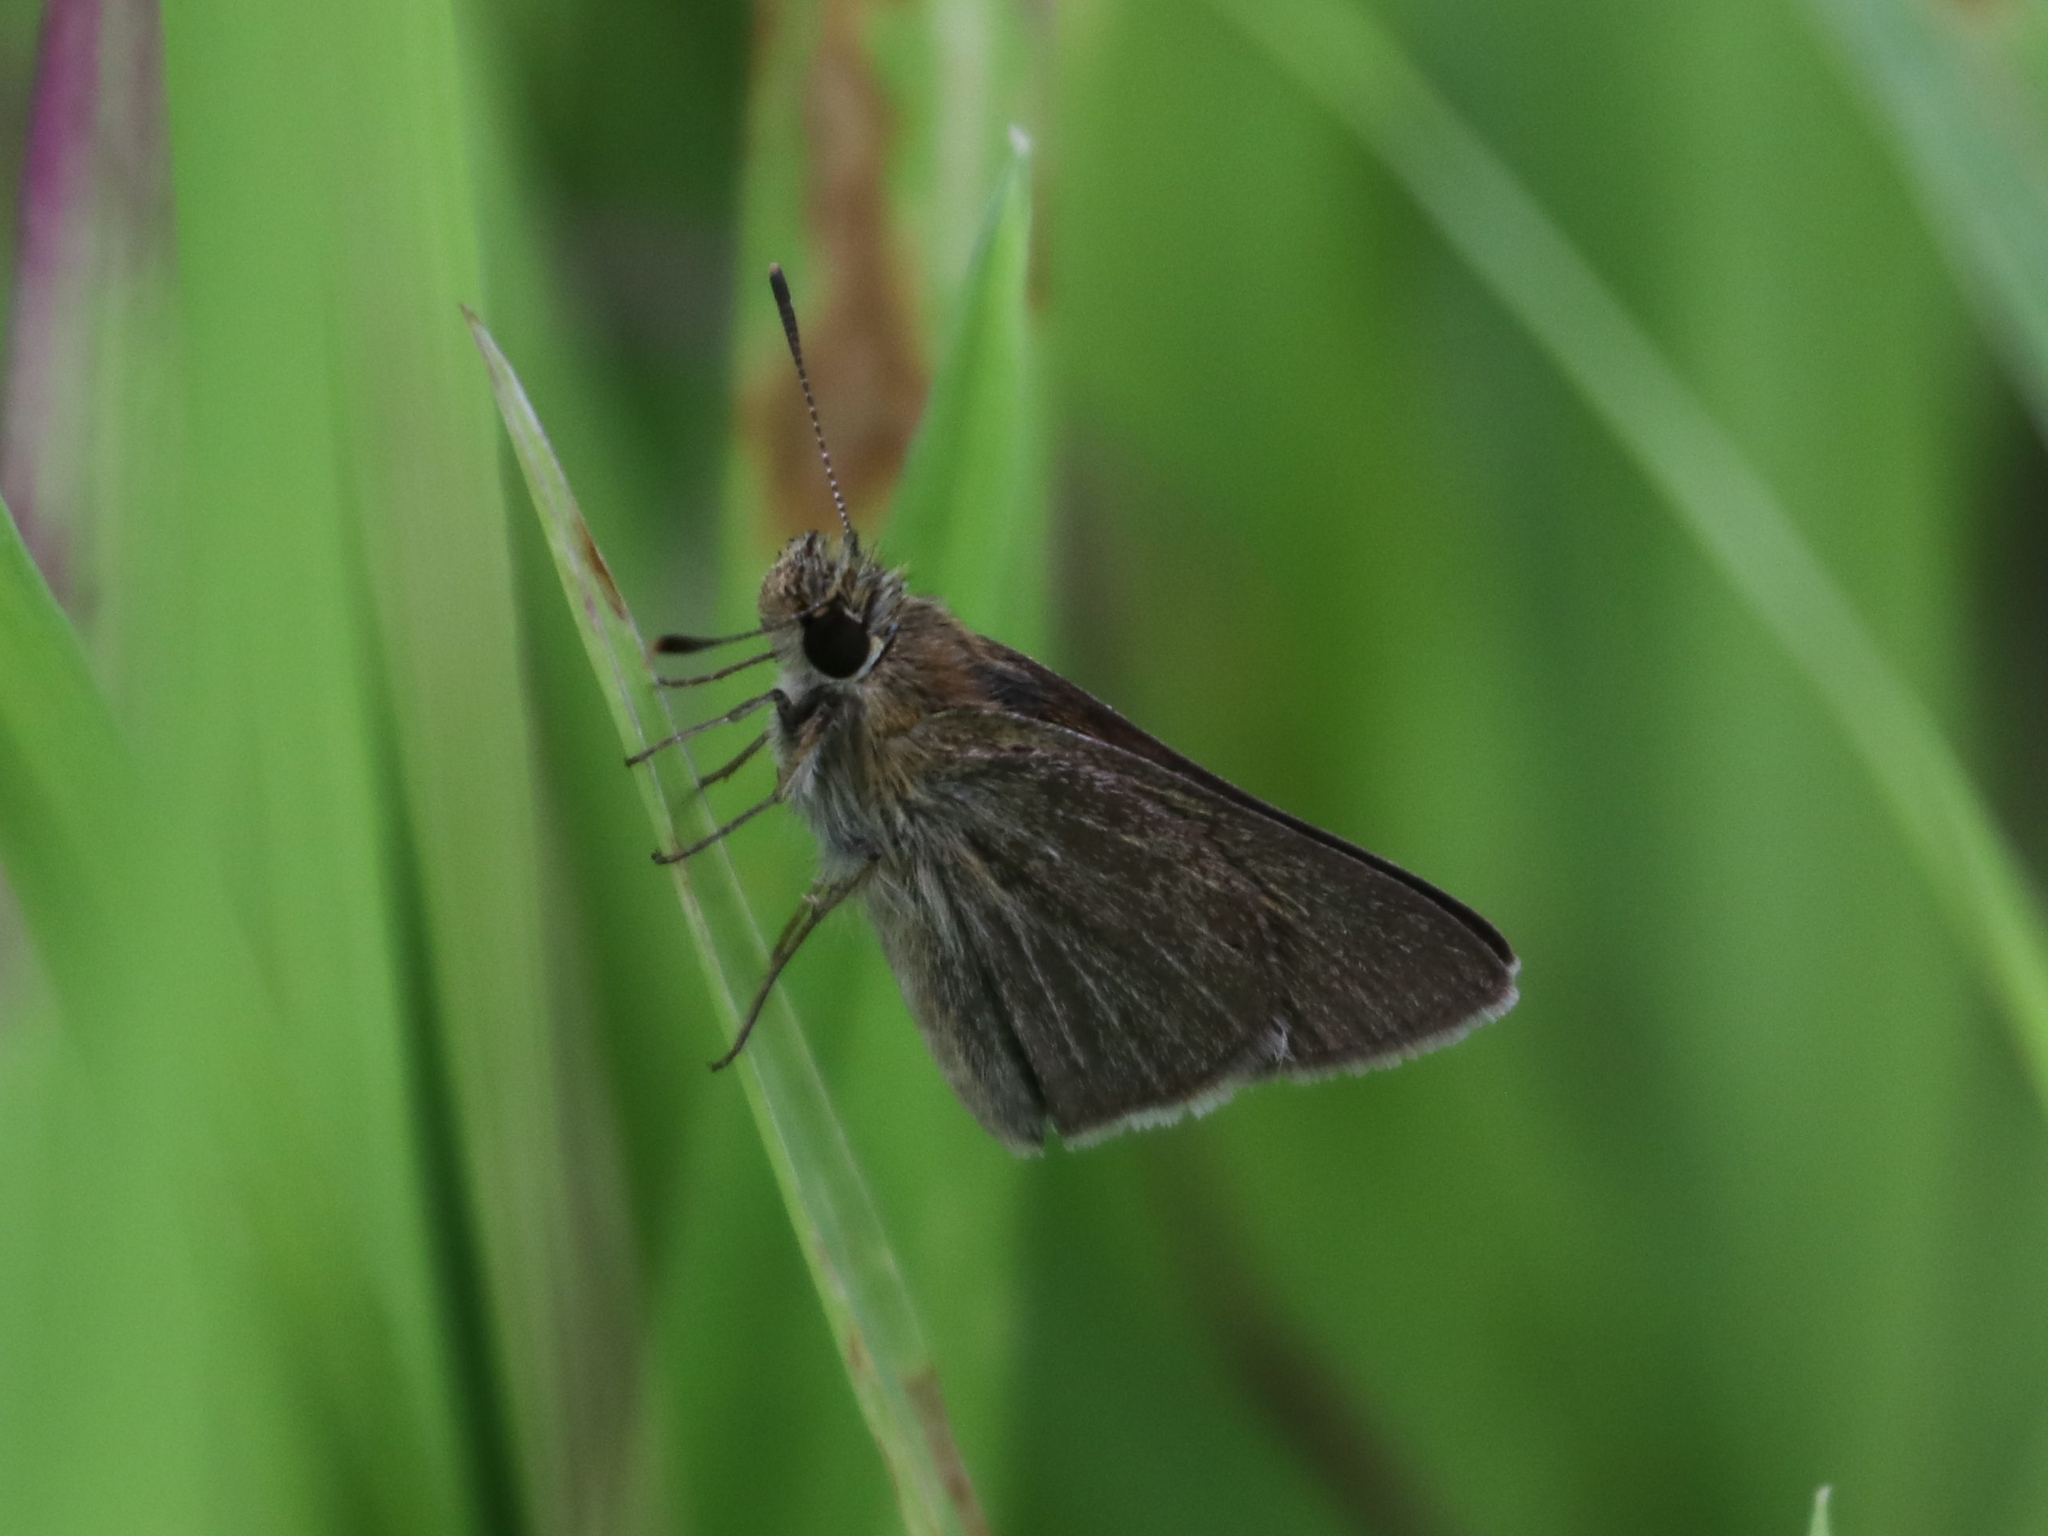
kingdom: Animalia
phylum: Arthropoda
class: Insecta
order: Lepidoptera
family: Hesperiidae
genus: Nastra
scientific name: Nastra lherminier
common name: Swarthy skipper
